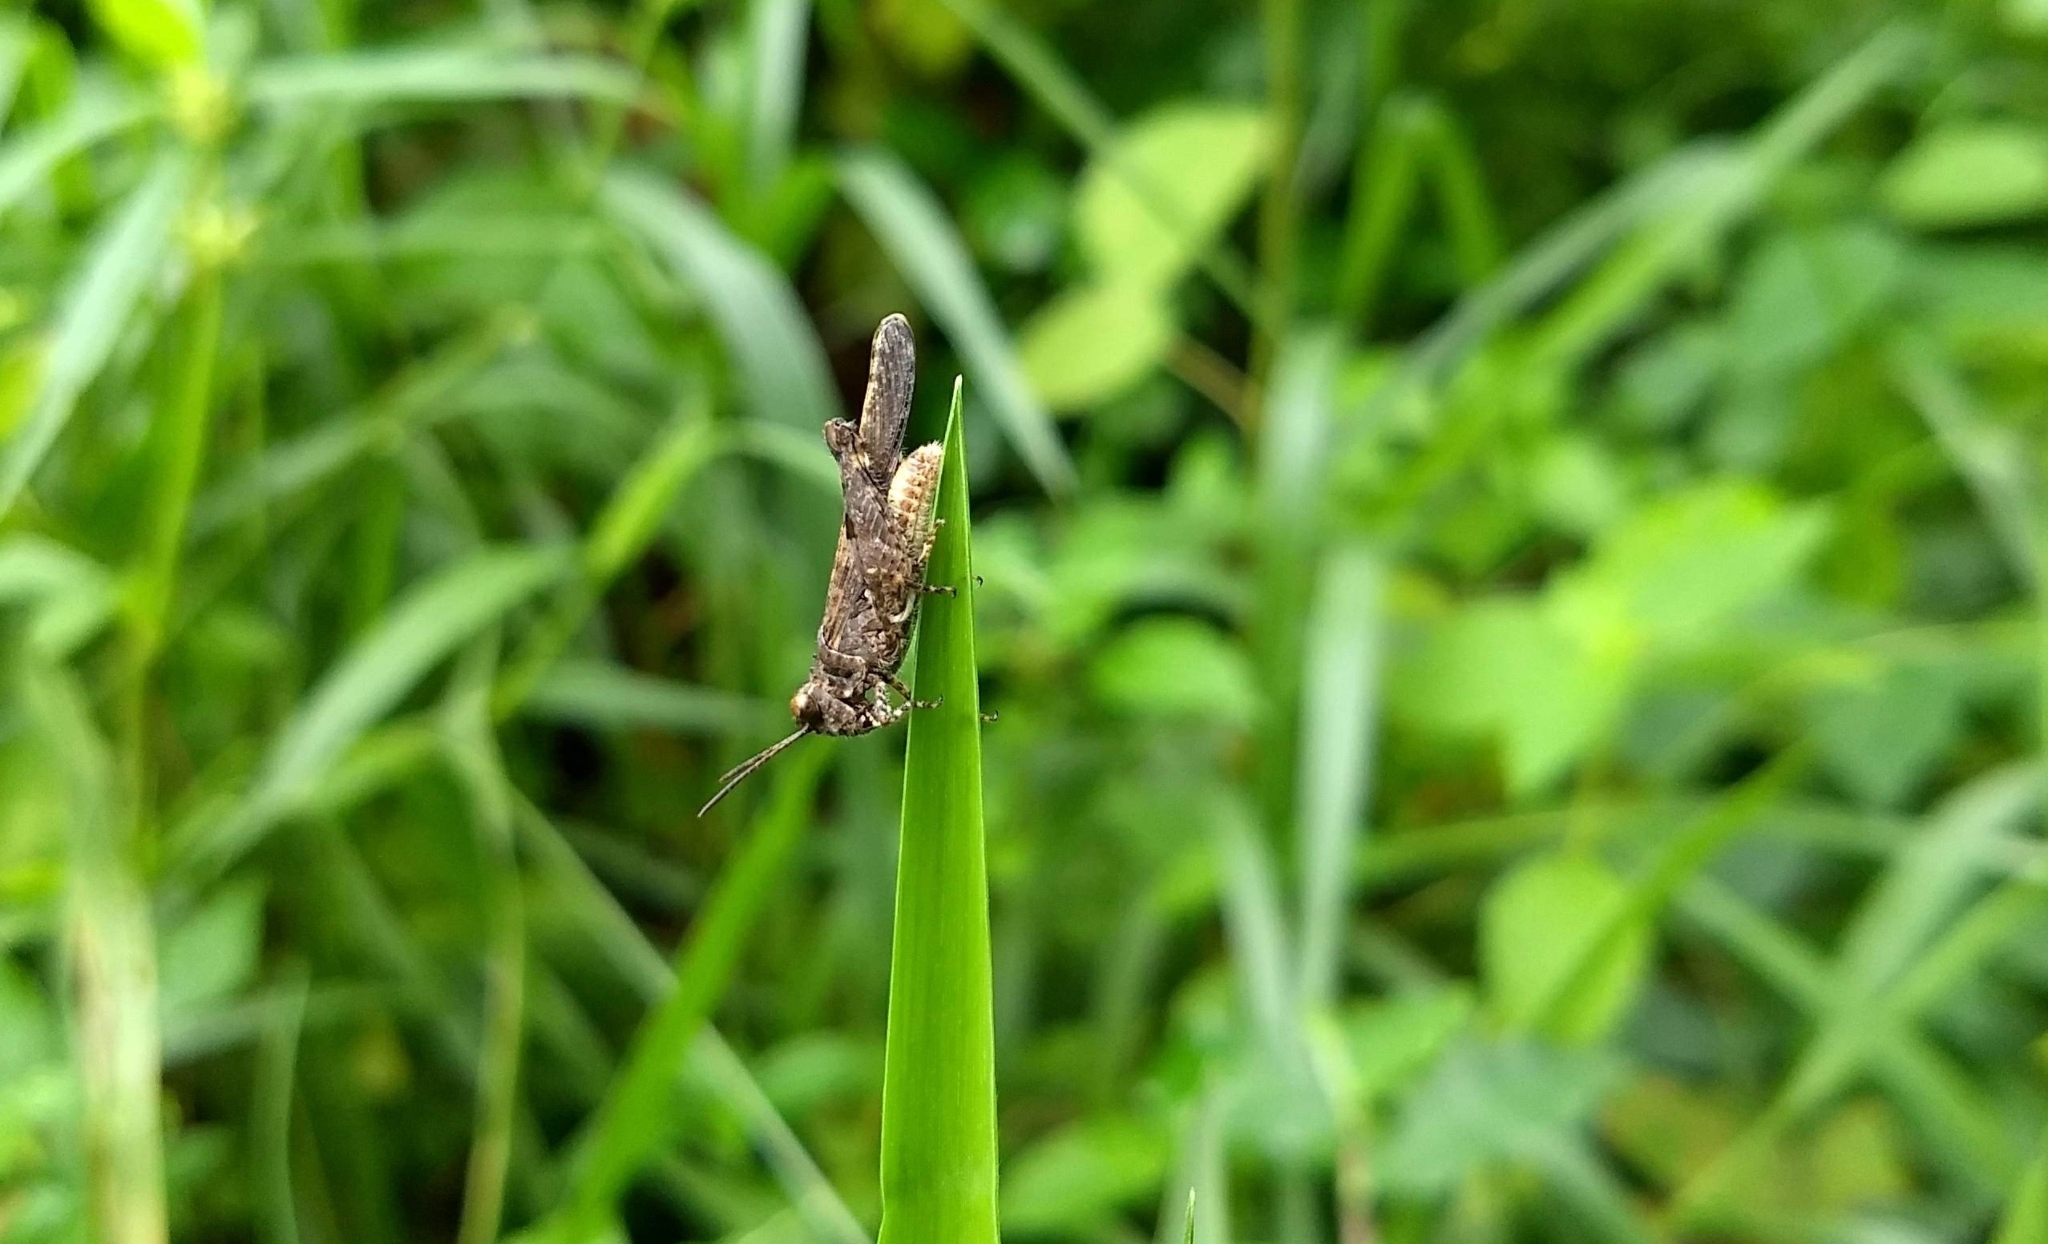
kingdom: Animalia
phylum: Arthropoda
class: Insecta
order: Orthoptera
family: Acrididae
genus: Trilophidia
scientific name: Trilophidia annulata
